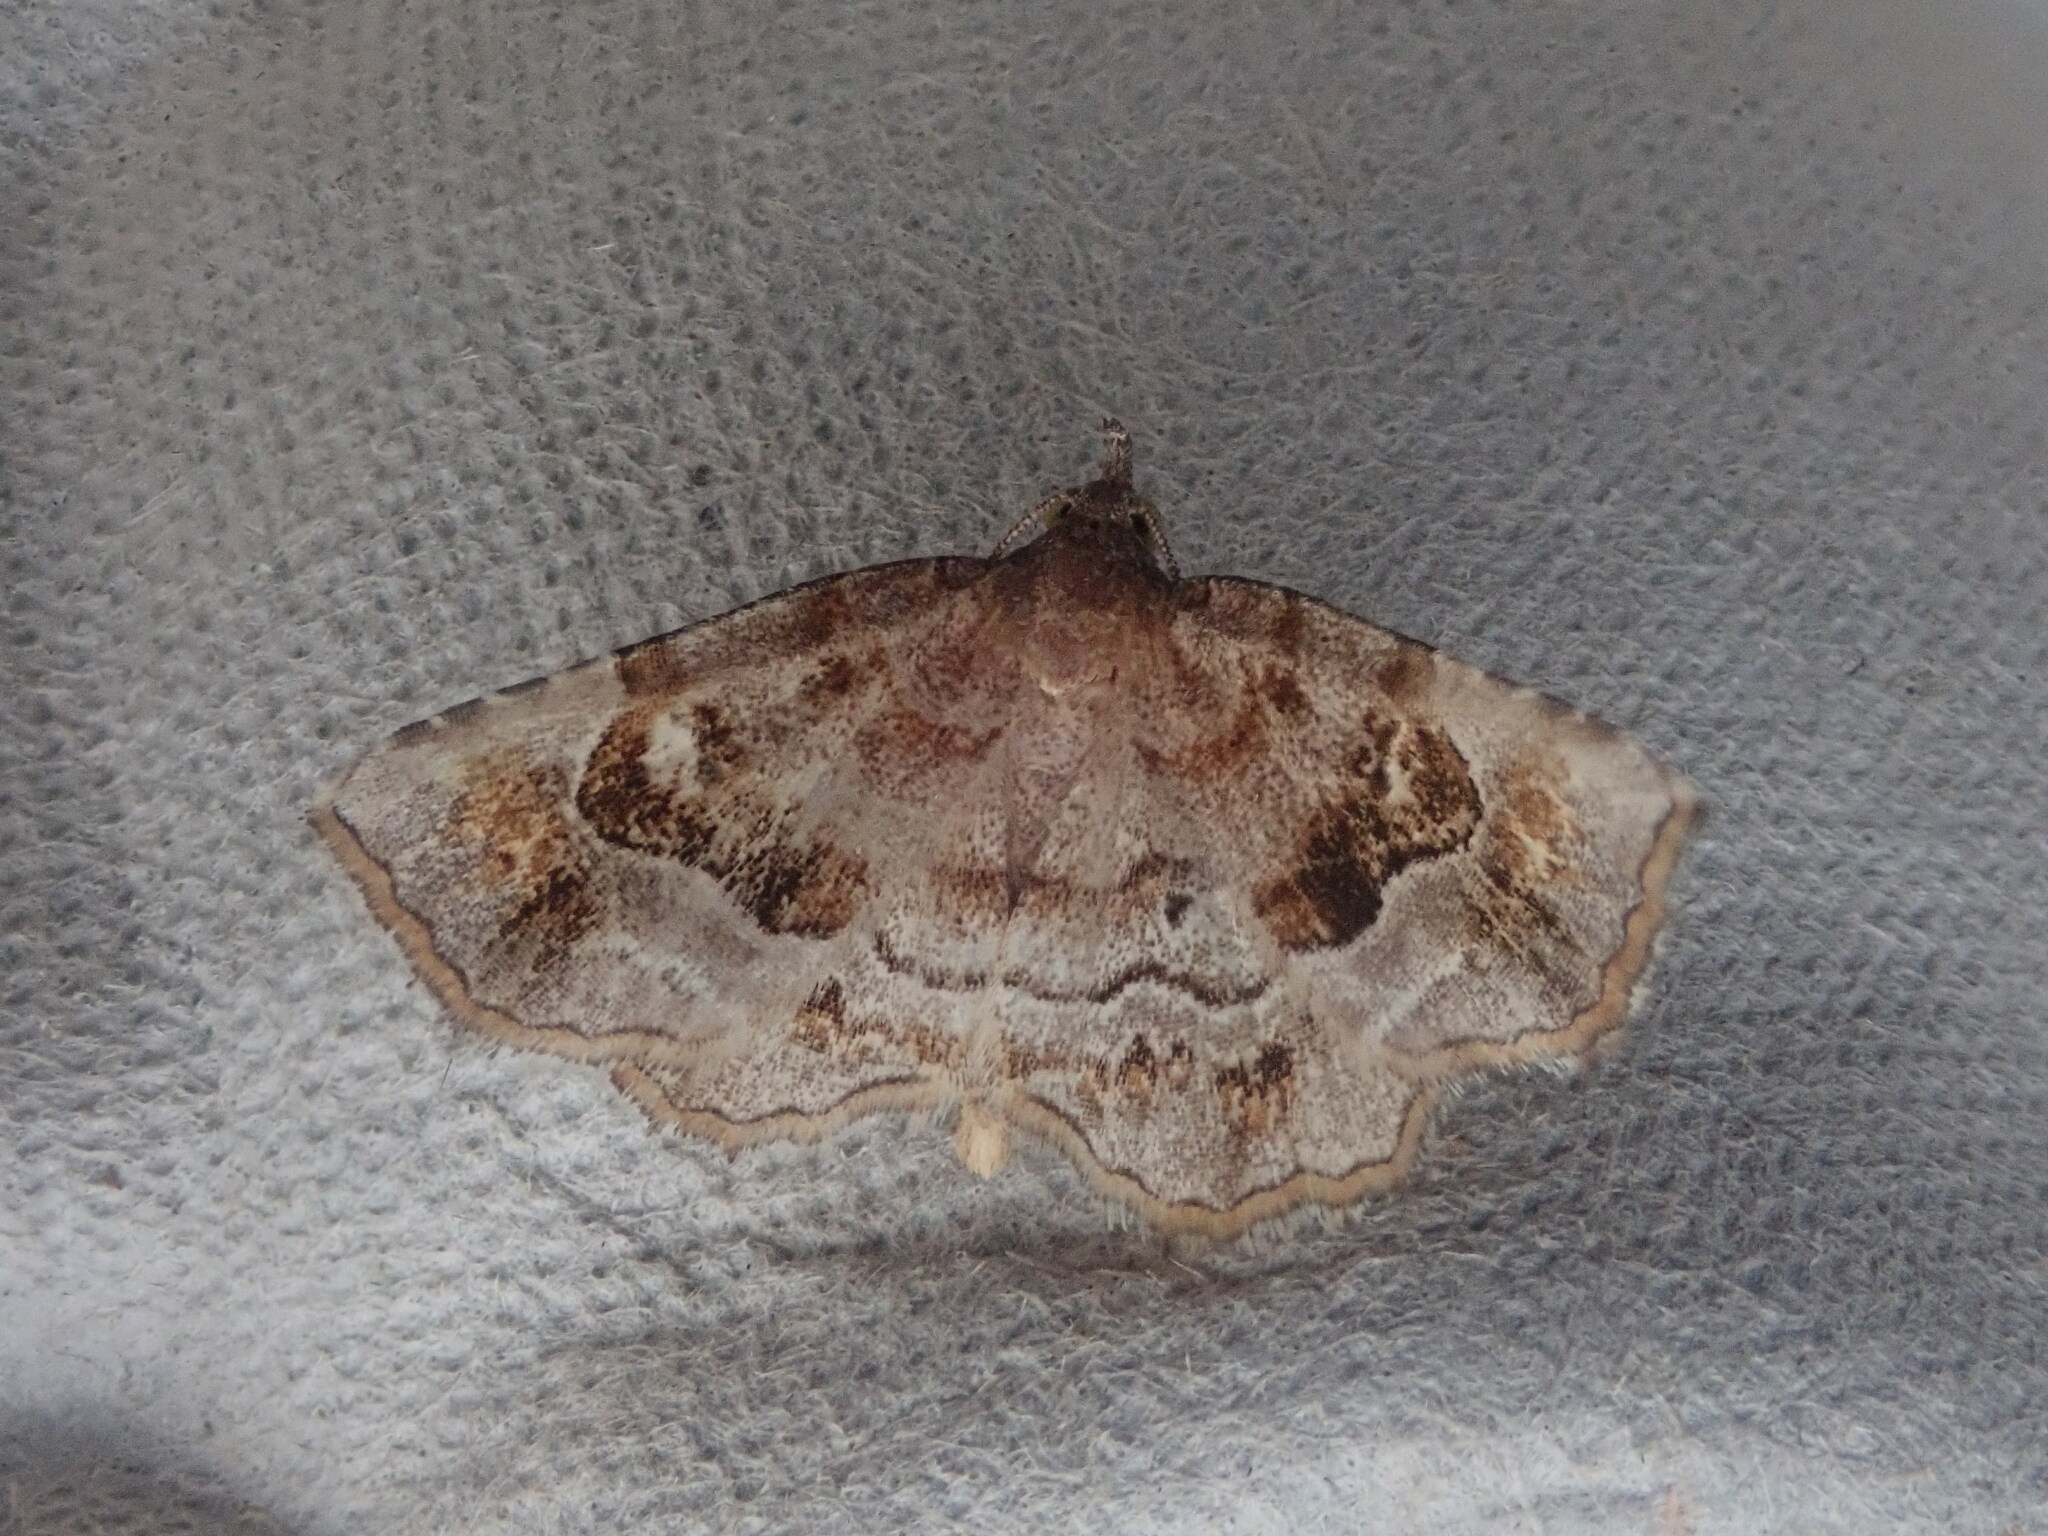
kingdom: Animalia
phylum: Arthropoda
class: Insecta
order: Lepidoptera
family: Erebidae
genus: Pangrapta
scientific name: Pangrapta decoralis
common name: Decorated owlet
